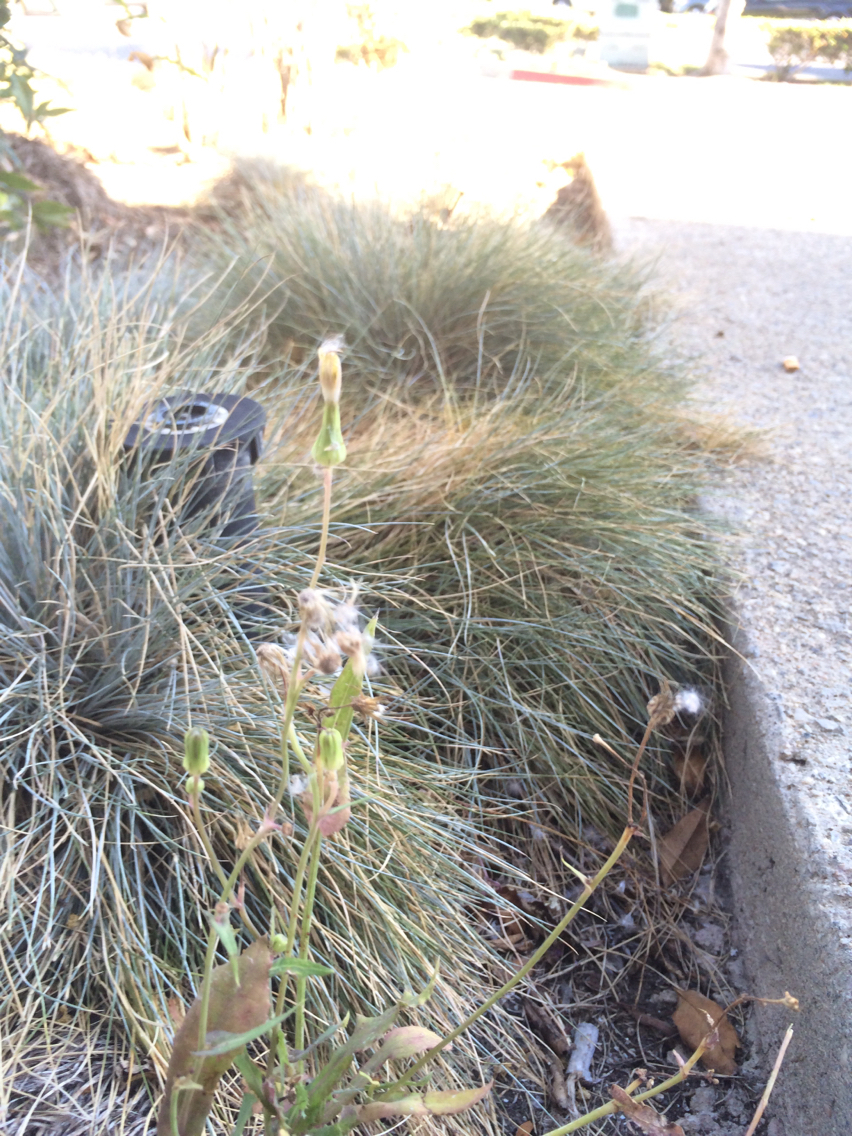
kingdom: Plantae
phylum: Tracheophyta
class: Magnoliopsida
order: Asterales
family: Asteraceae
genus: Sonchus
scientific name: Sonchus oleraceus
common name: Common sowthistle
